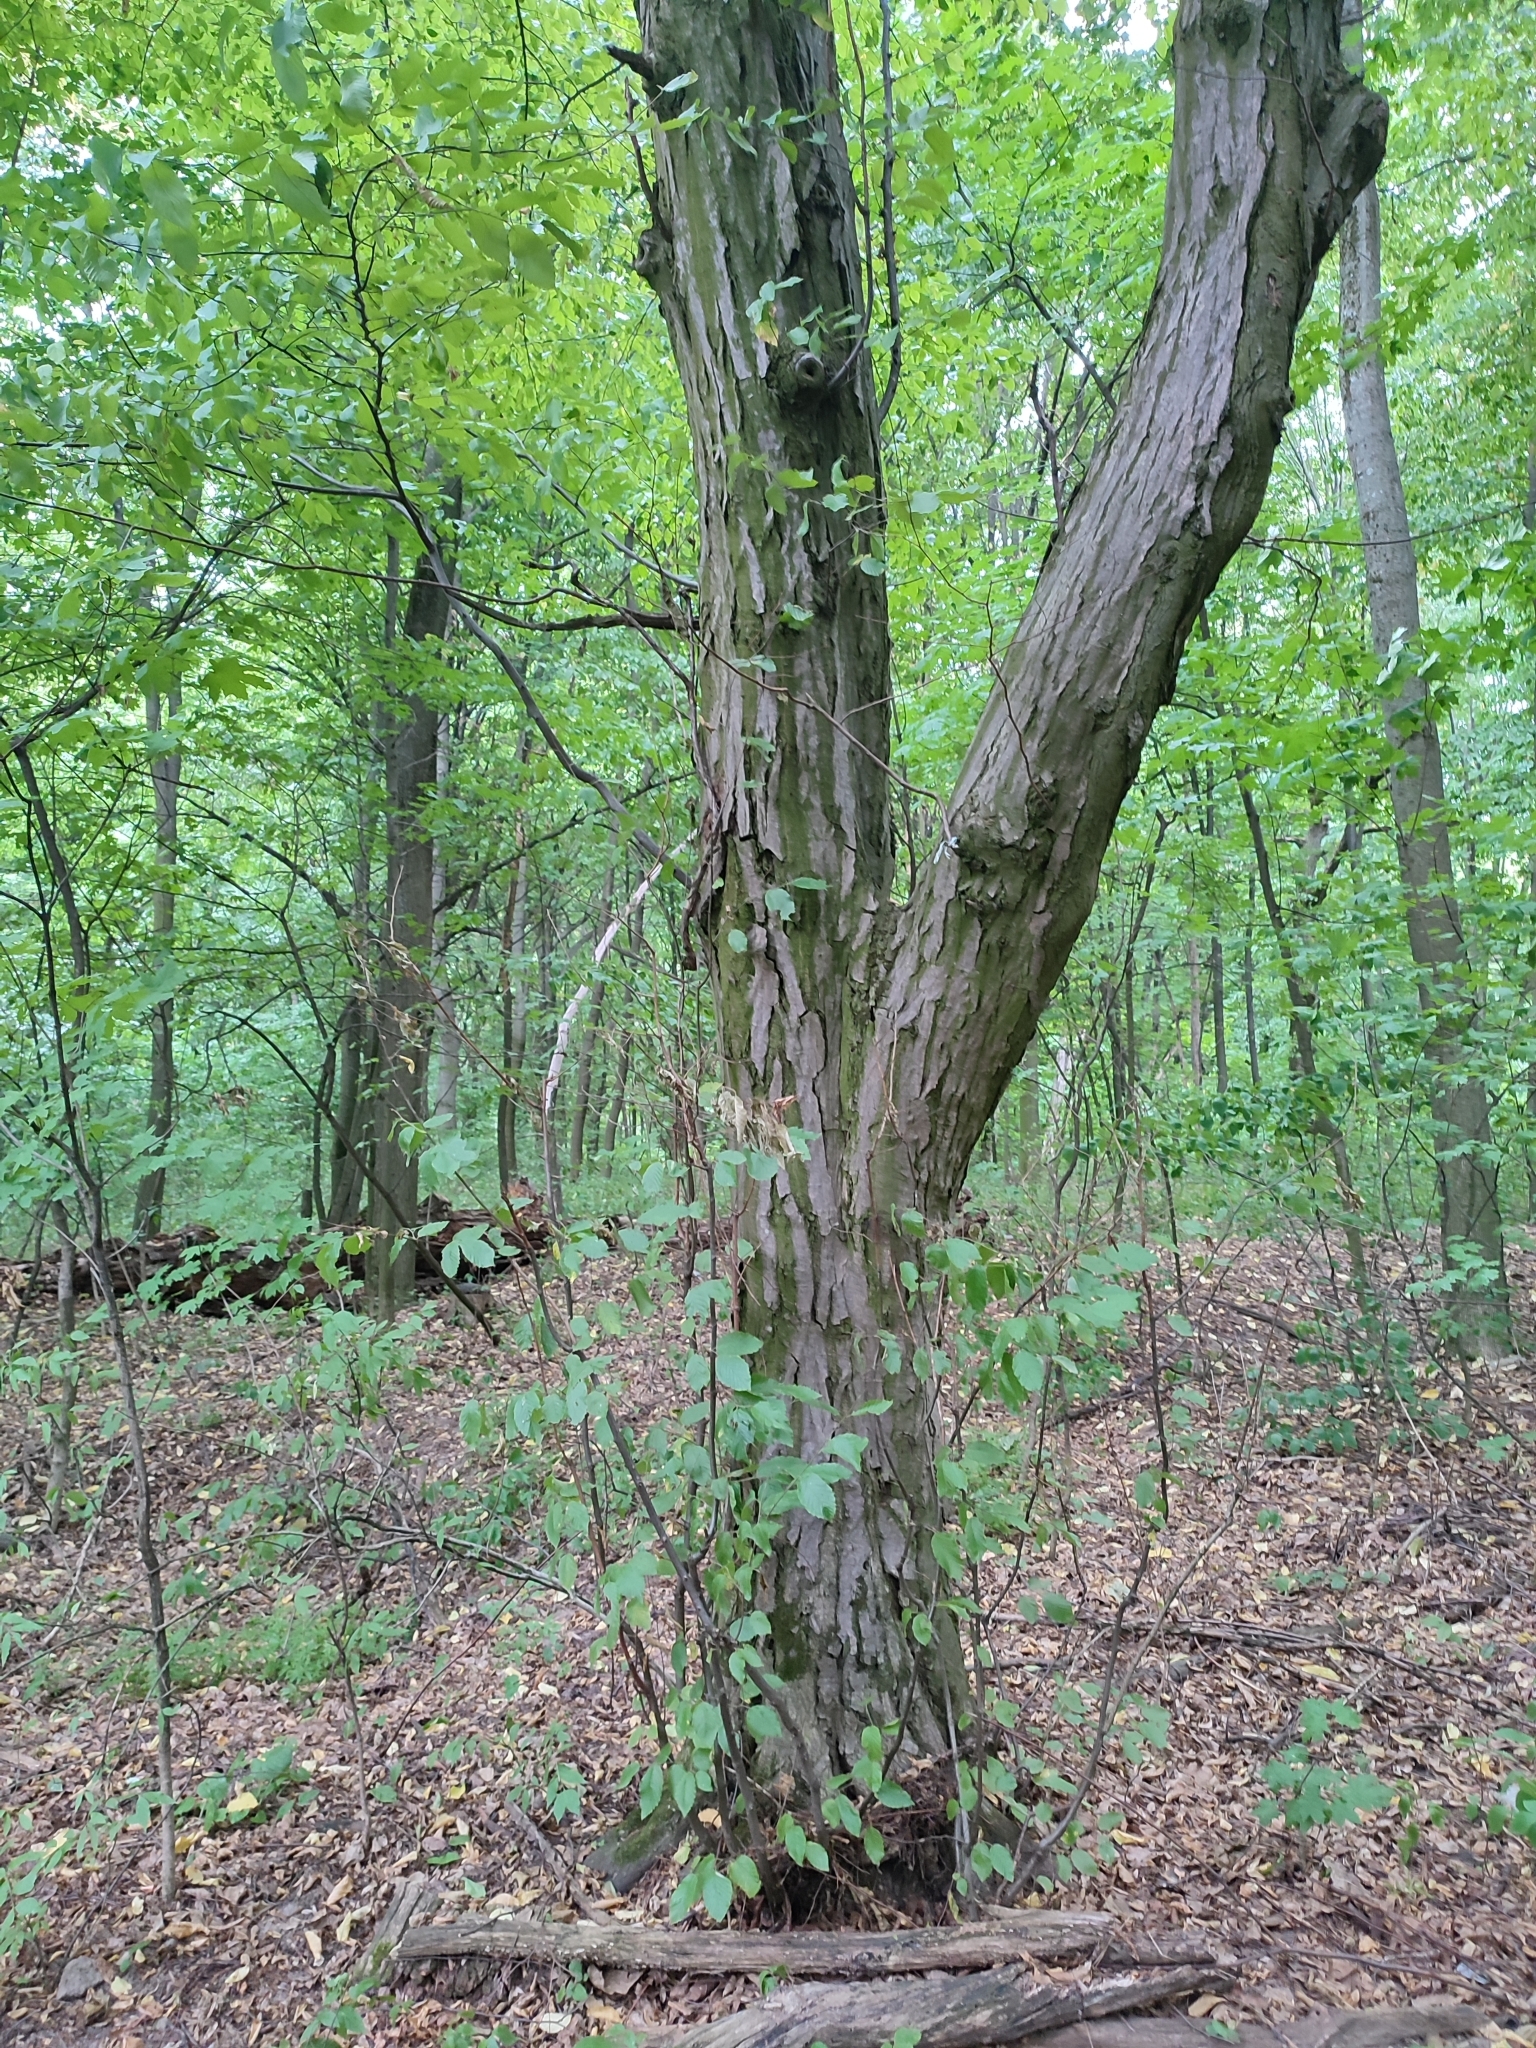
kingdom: Plantae
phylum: Tracheophyta
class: Magnoliopsida
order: Fagales
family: Betulaceae
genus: Carpinus
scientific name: Carpinus betulus
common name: Hornbeam
